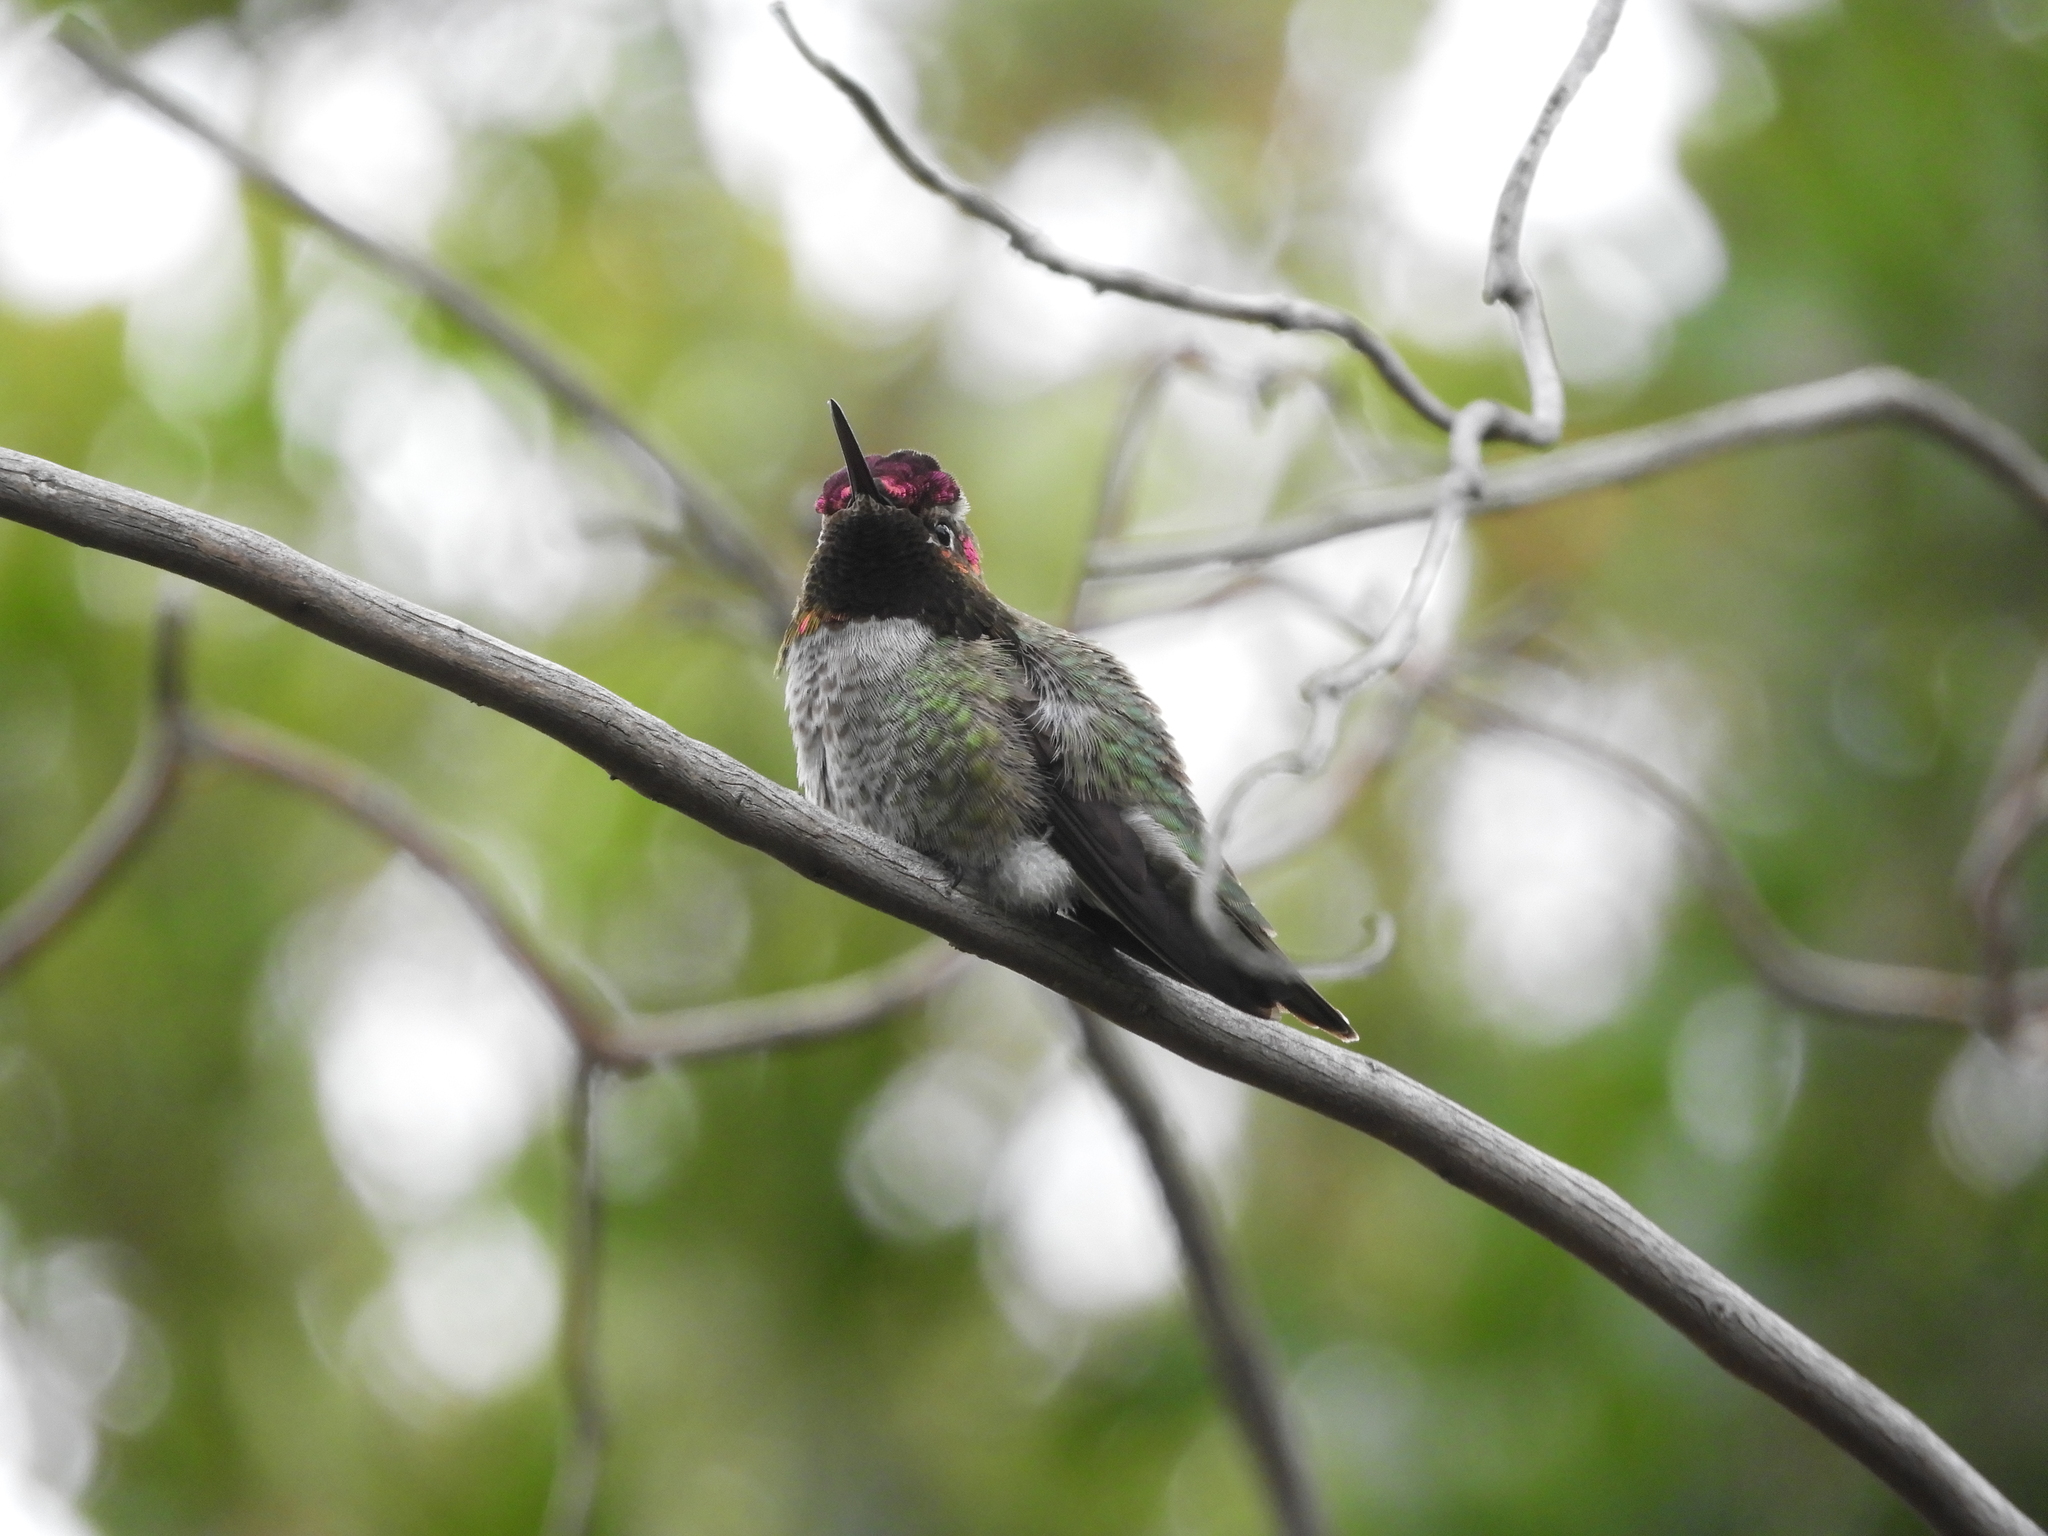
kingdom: Animalia
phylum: Chordata
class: Aves
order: Apodiformes
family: Trochilidae
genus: Calypte
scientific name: Calypte anna
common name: Anna's hummingbird
